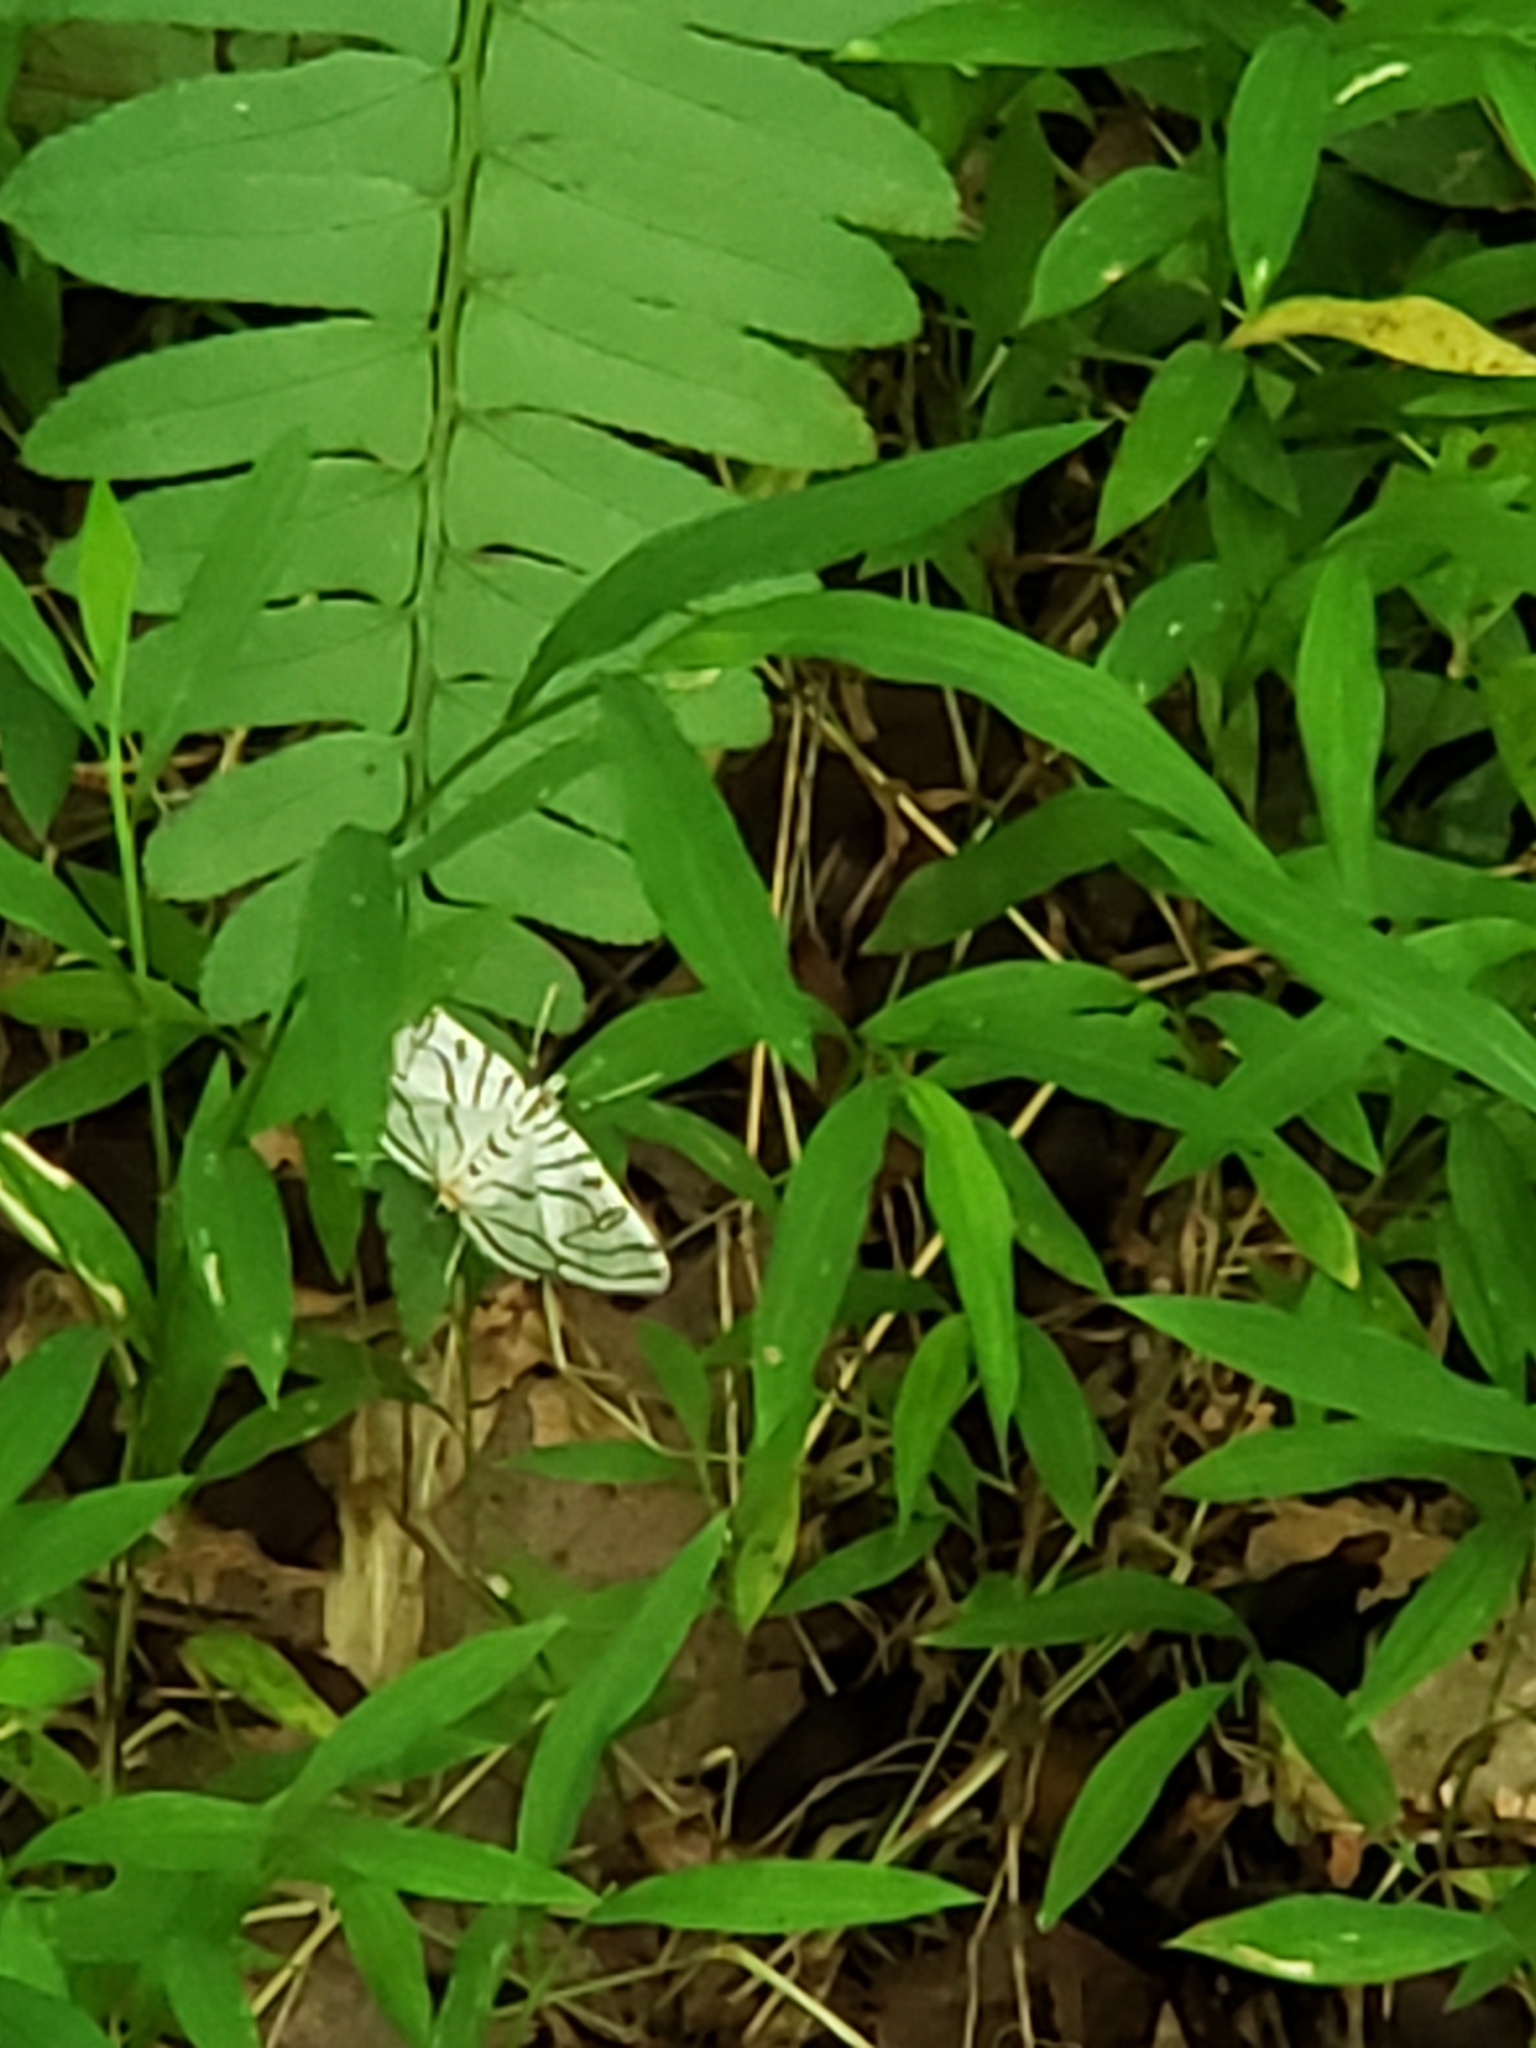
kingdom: Animalia
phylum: Arthropoda
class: Insecta
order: Lepidoptera
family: Crambidae
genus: Conchylodes
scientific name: Conchylodes ovulalis
